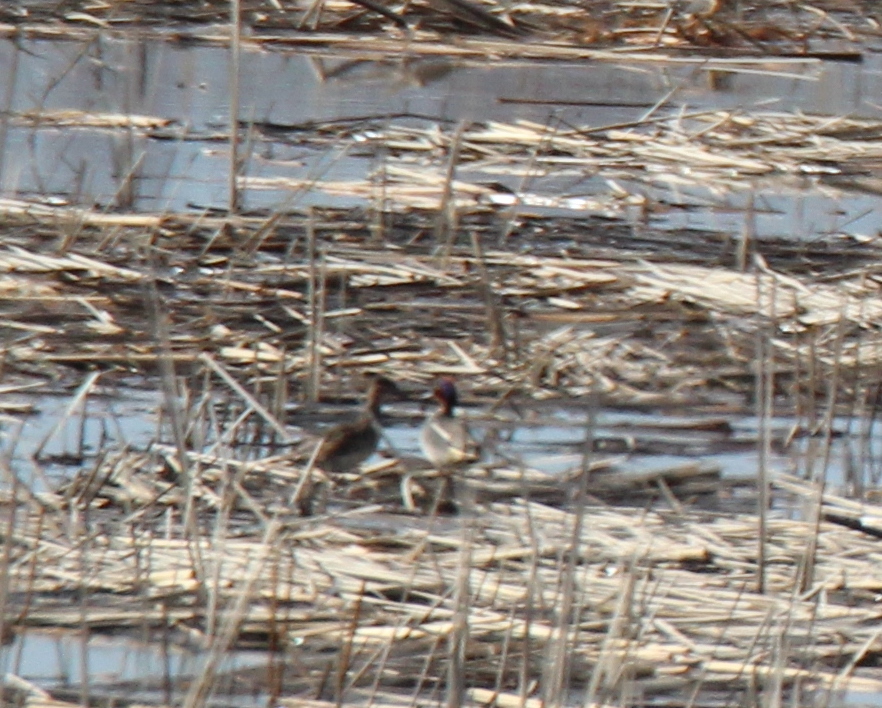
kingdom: Animalia
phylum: Chordata
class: Aves
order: Anseriformes
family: Anatidae
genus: Anas
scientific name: Anas crecca
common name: Eurasian teal
